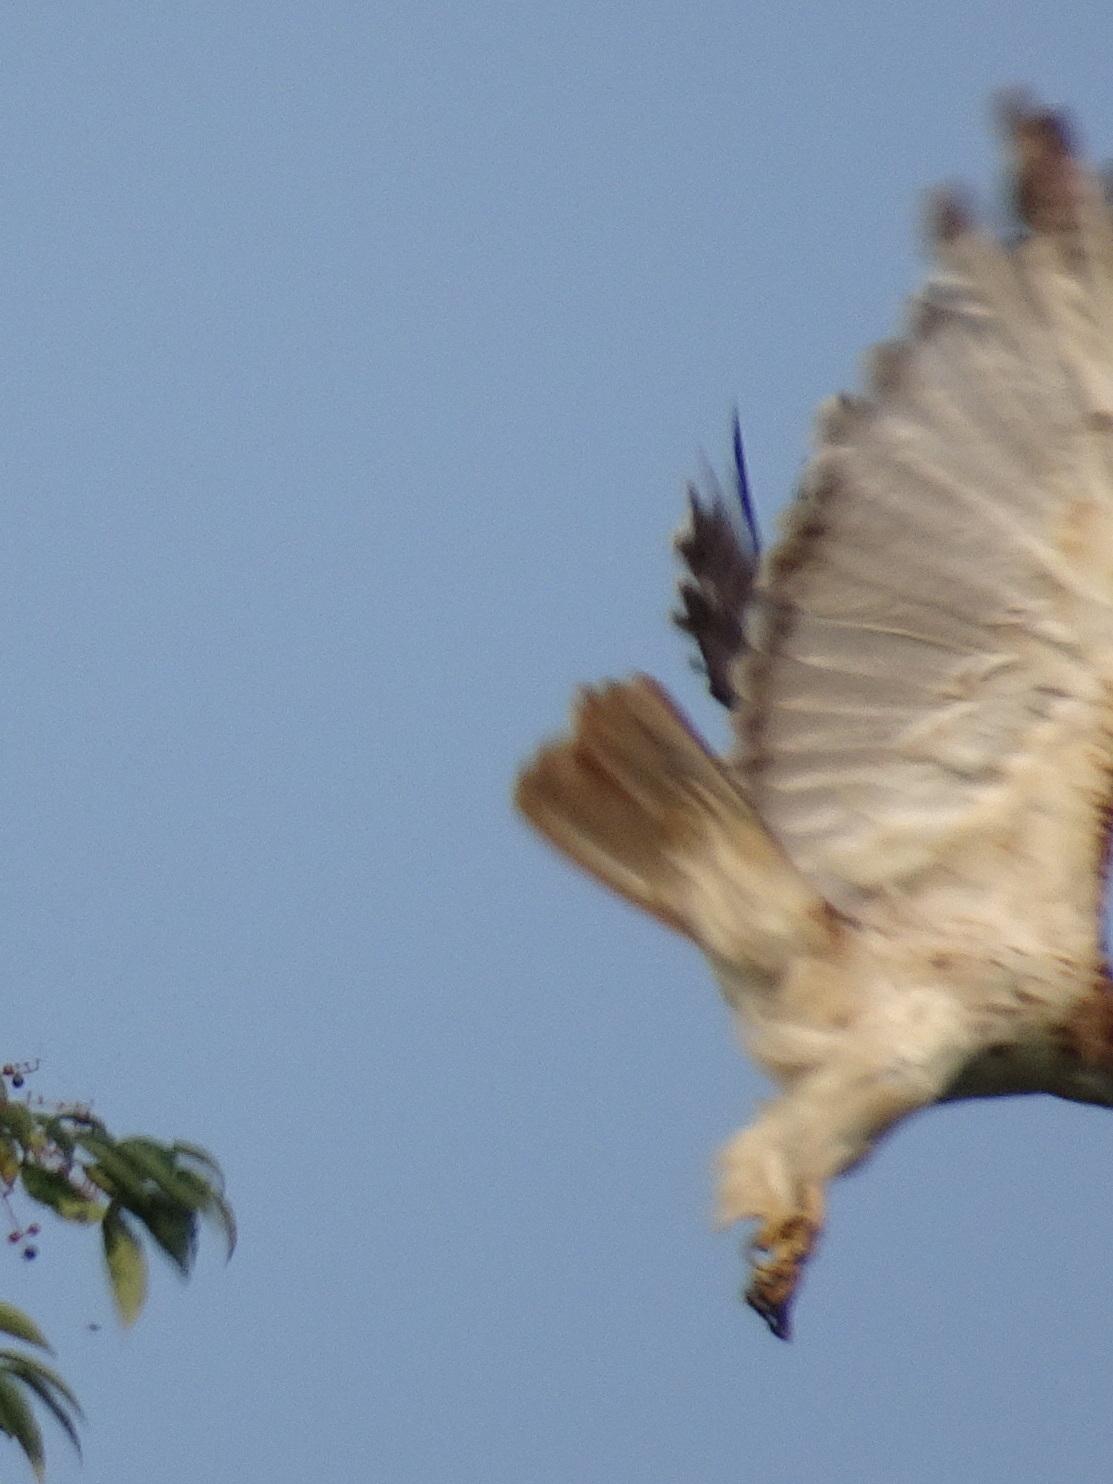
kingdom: Animalia
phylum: Chordata
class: Aves
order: Accipitriformes
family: Accipitridae
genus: Buteo
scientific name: Buteo jamaicensis
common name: Red-tailed hawk
